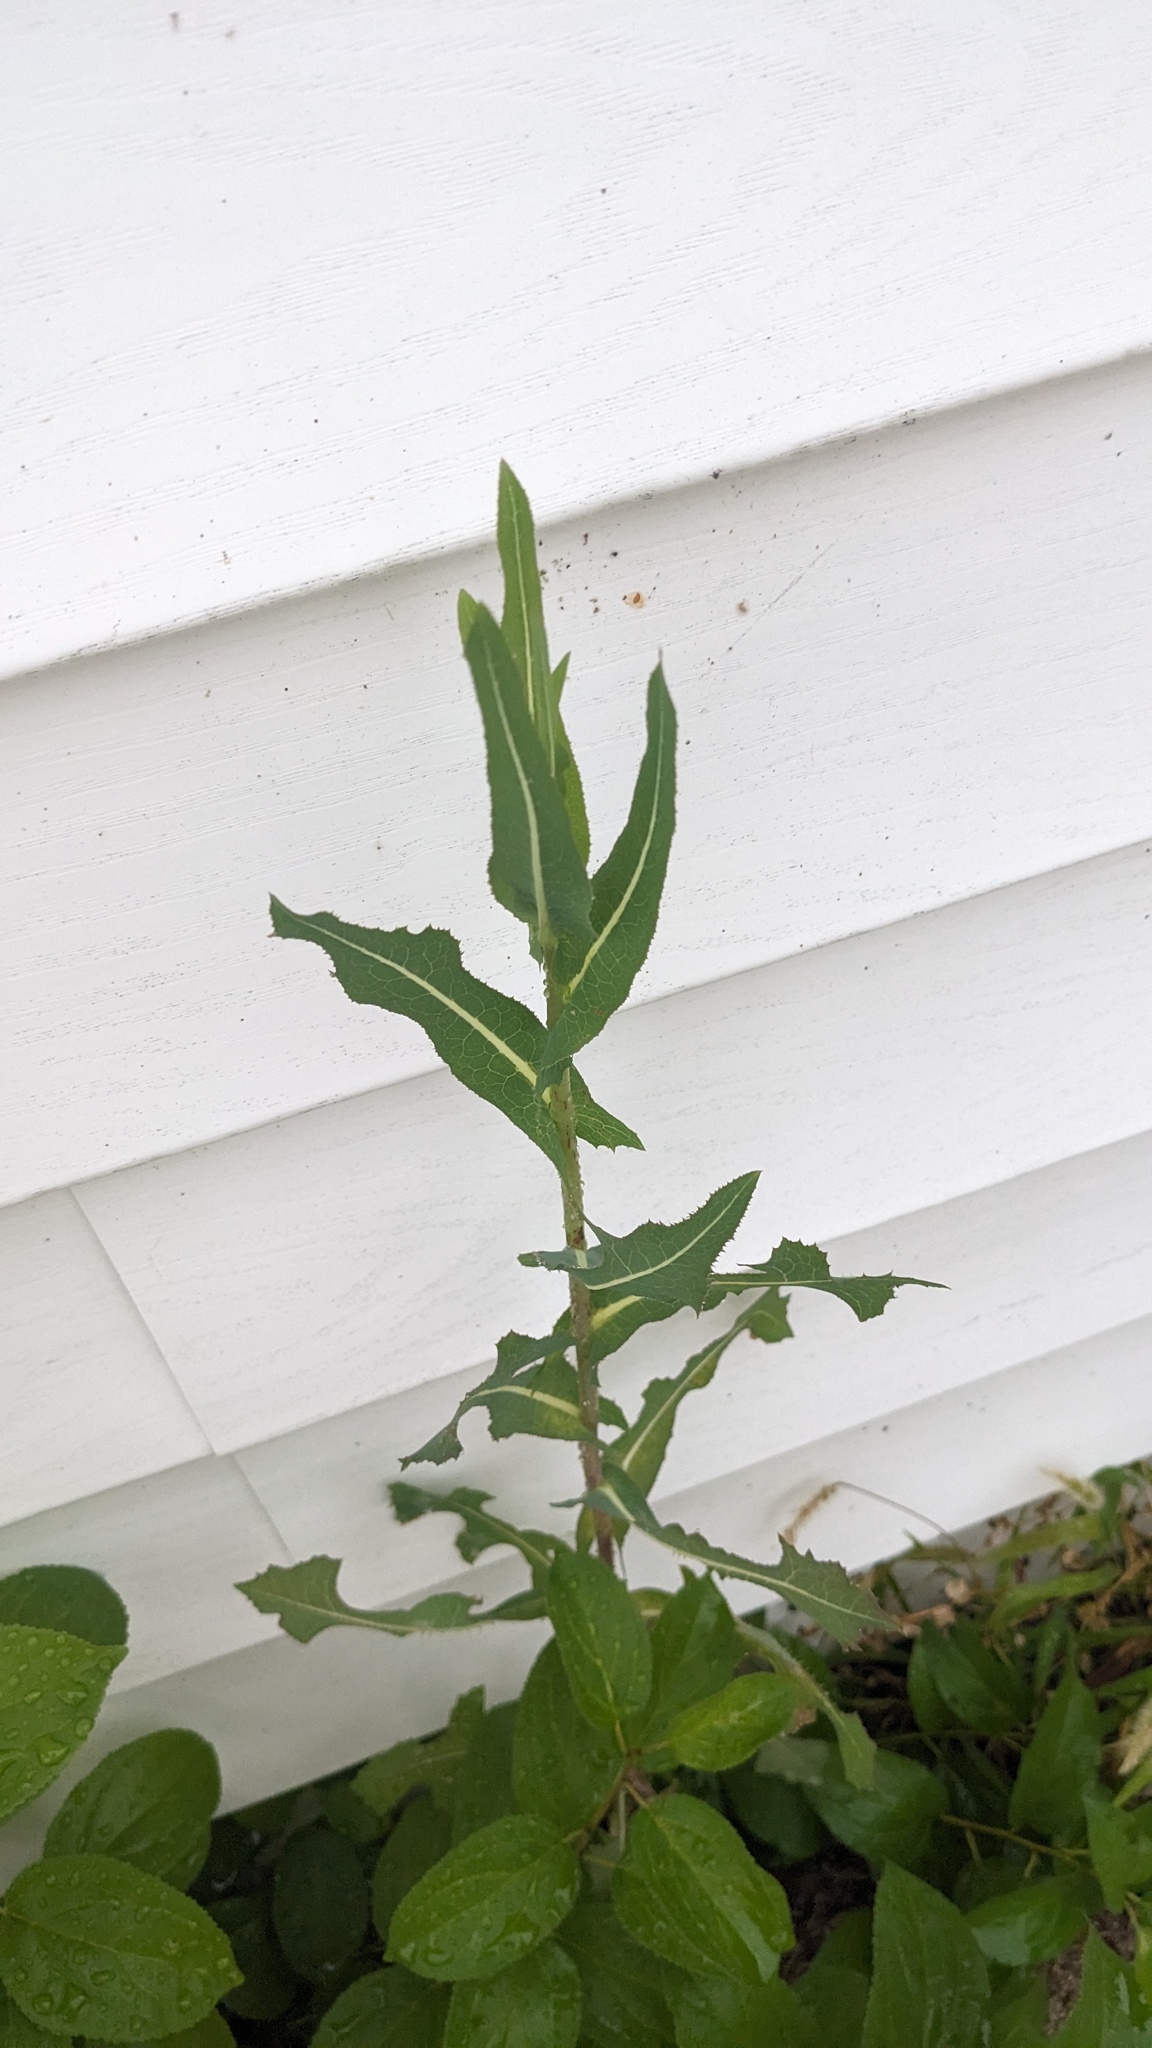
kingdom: Plantae
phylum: Tracheophyta
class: Magnoliopsida
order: Asterales
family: Asteraceae
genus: Lactuca
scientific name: Lactuca serriola
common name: Prickly lettuce
